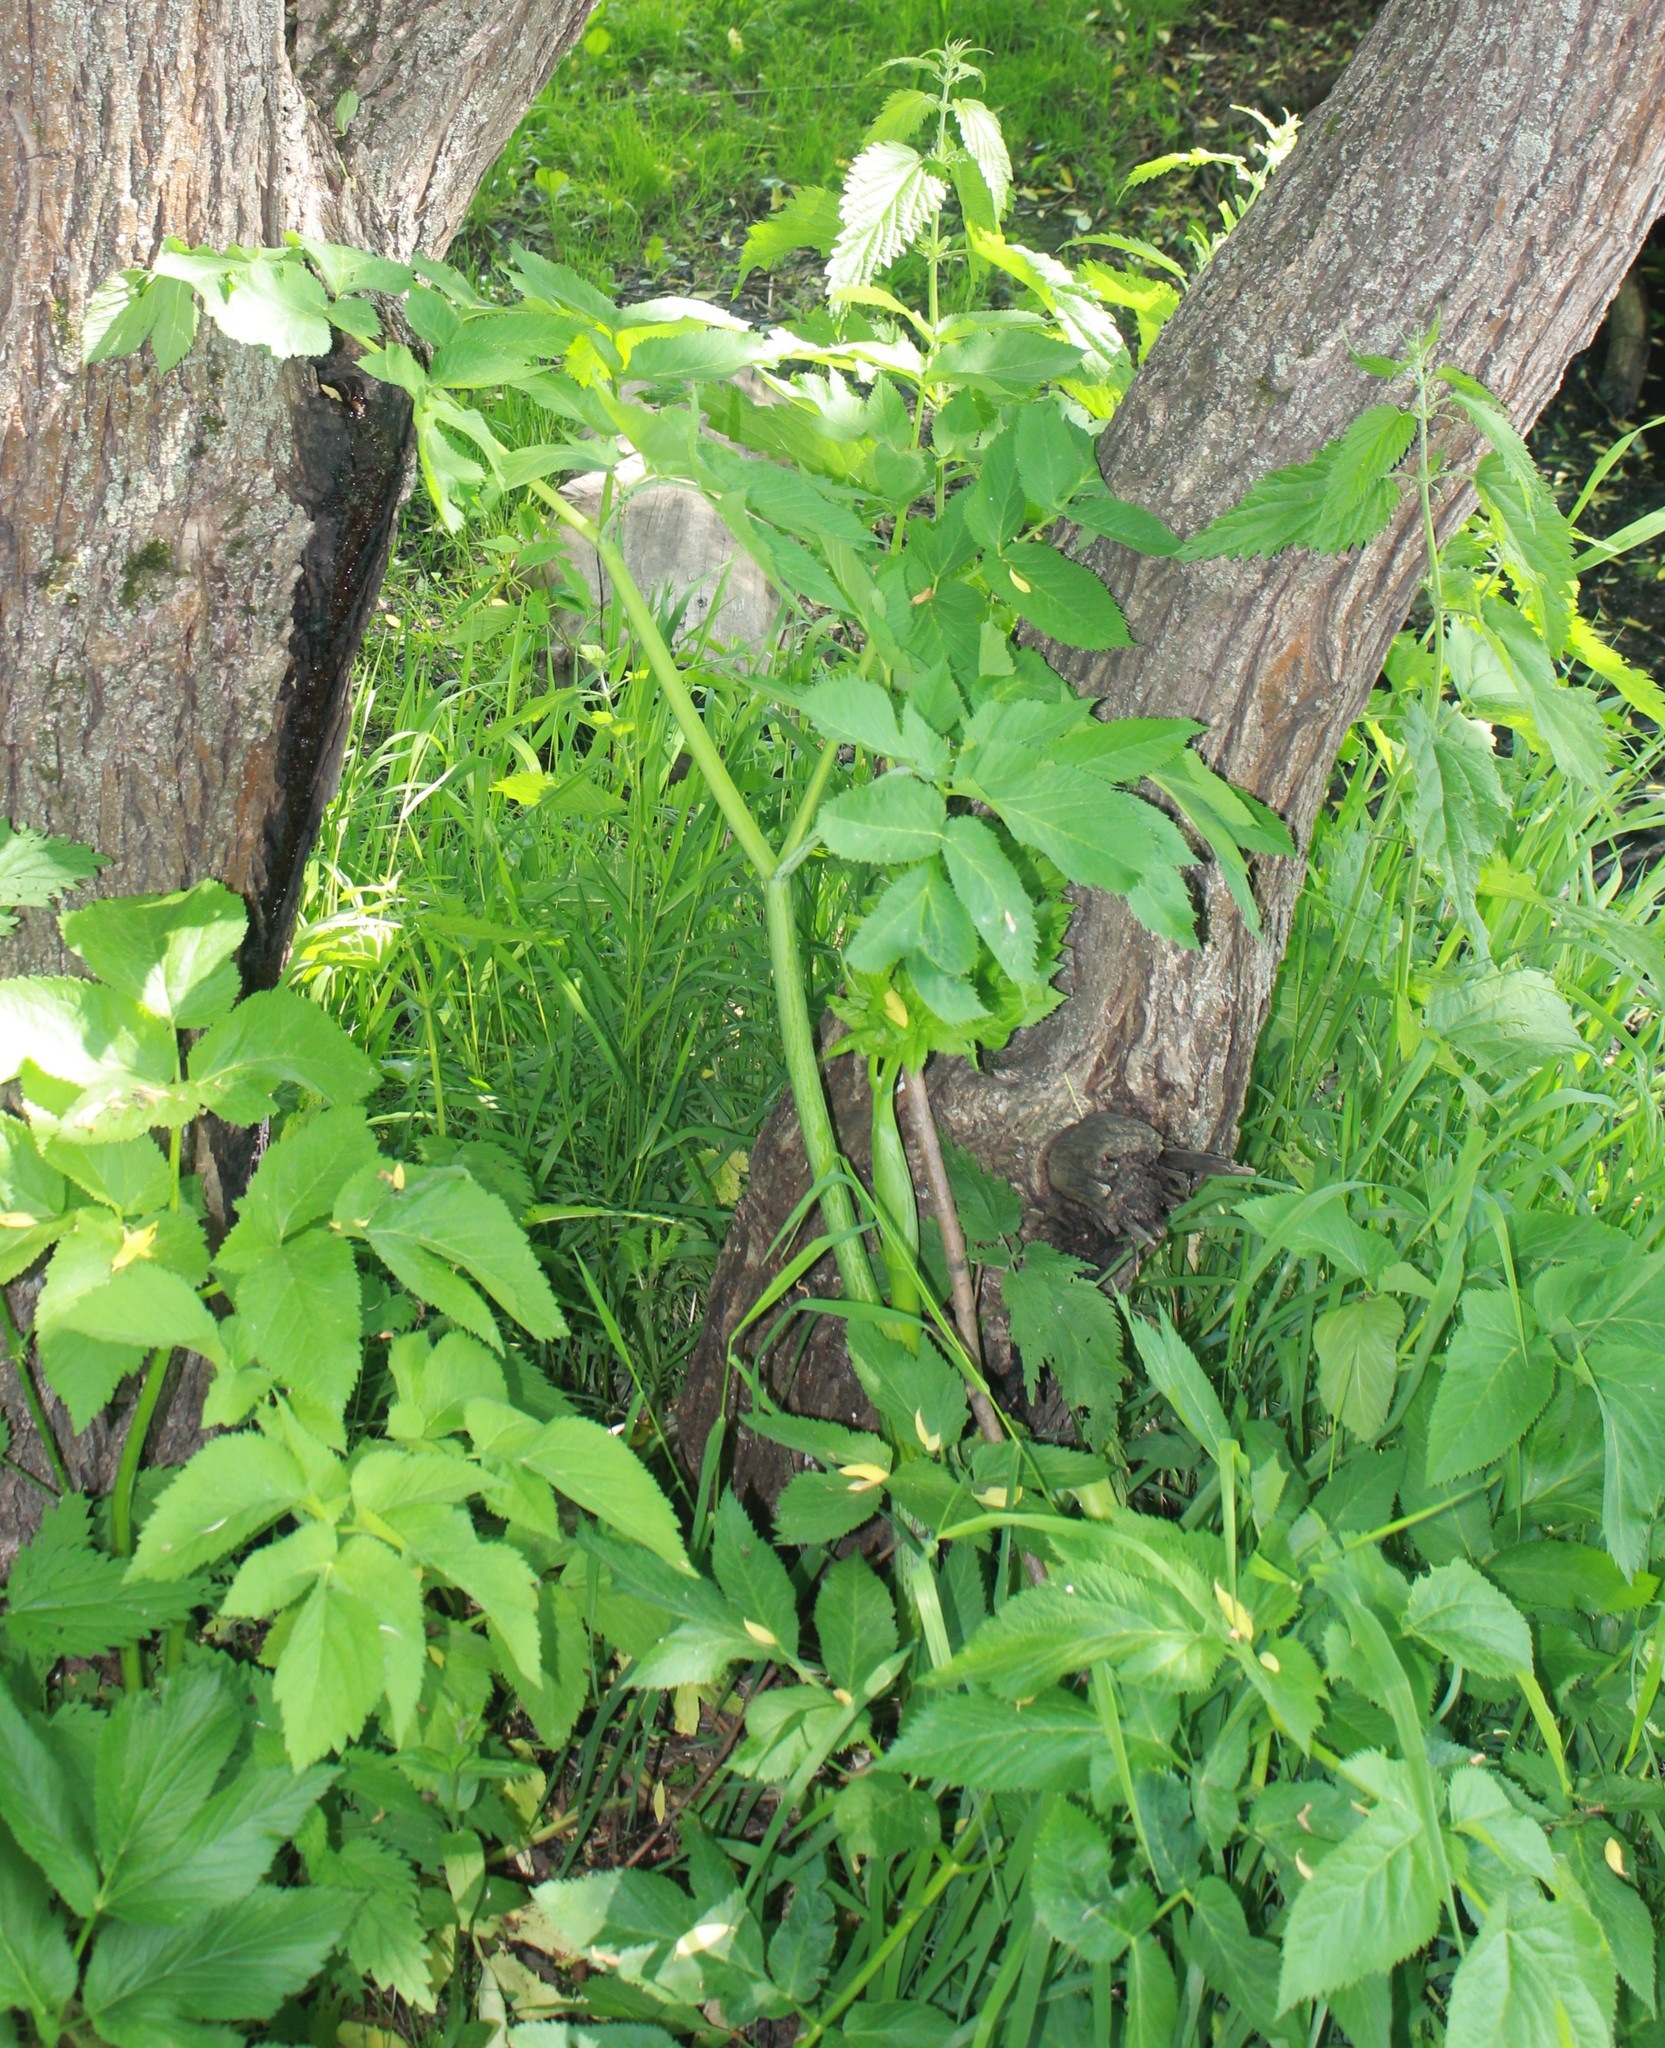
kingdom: Plantae
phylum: Tracheophyta
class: Magnoliopsida
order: Apiales
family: Apiaceae
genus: Angelica
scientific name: Angelica archangelica
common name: Garden angelica
